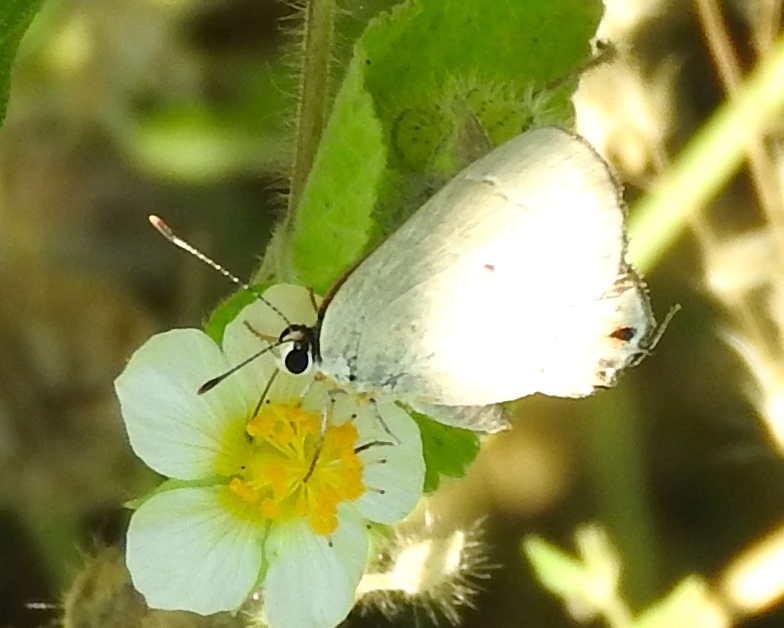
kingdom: Animalia
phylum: Arthropoda
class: Insecta
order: Lepidoptera
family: Lycaenidae
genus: Thecla
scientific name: Thecla rufofusca
